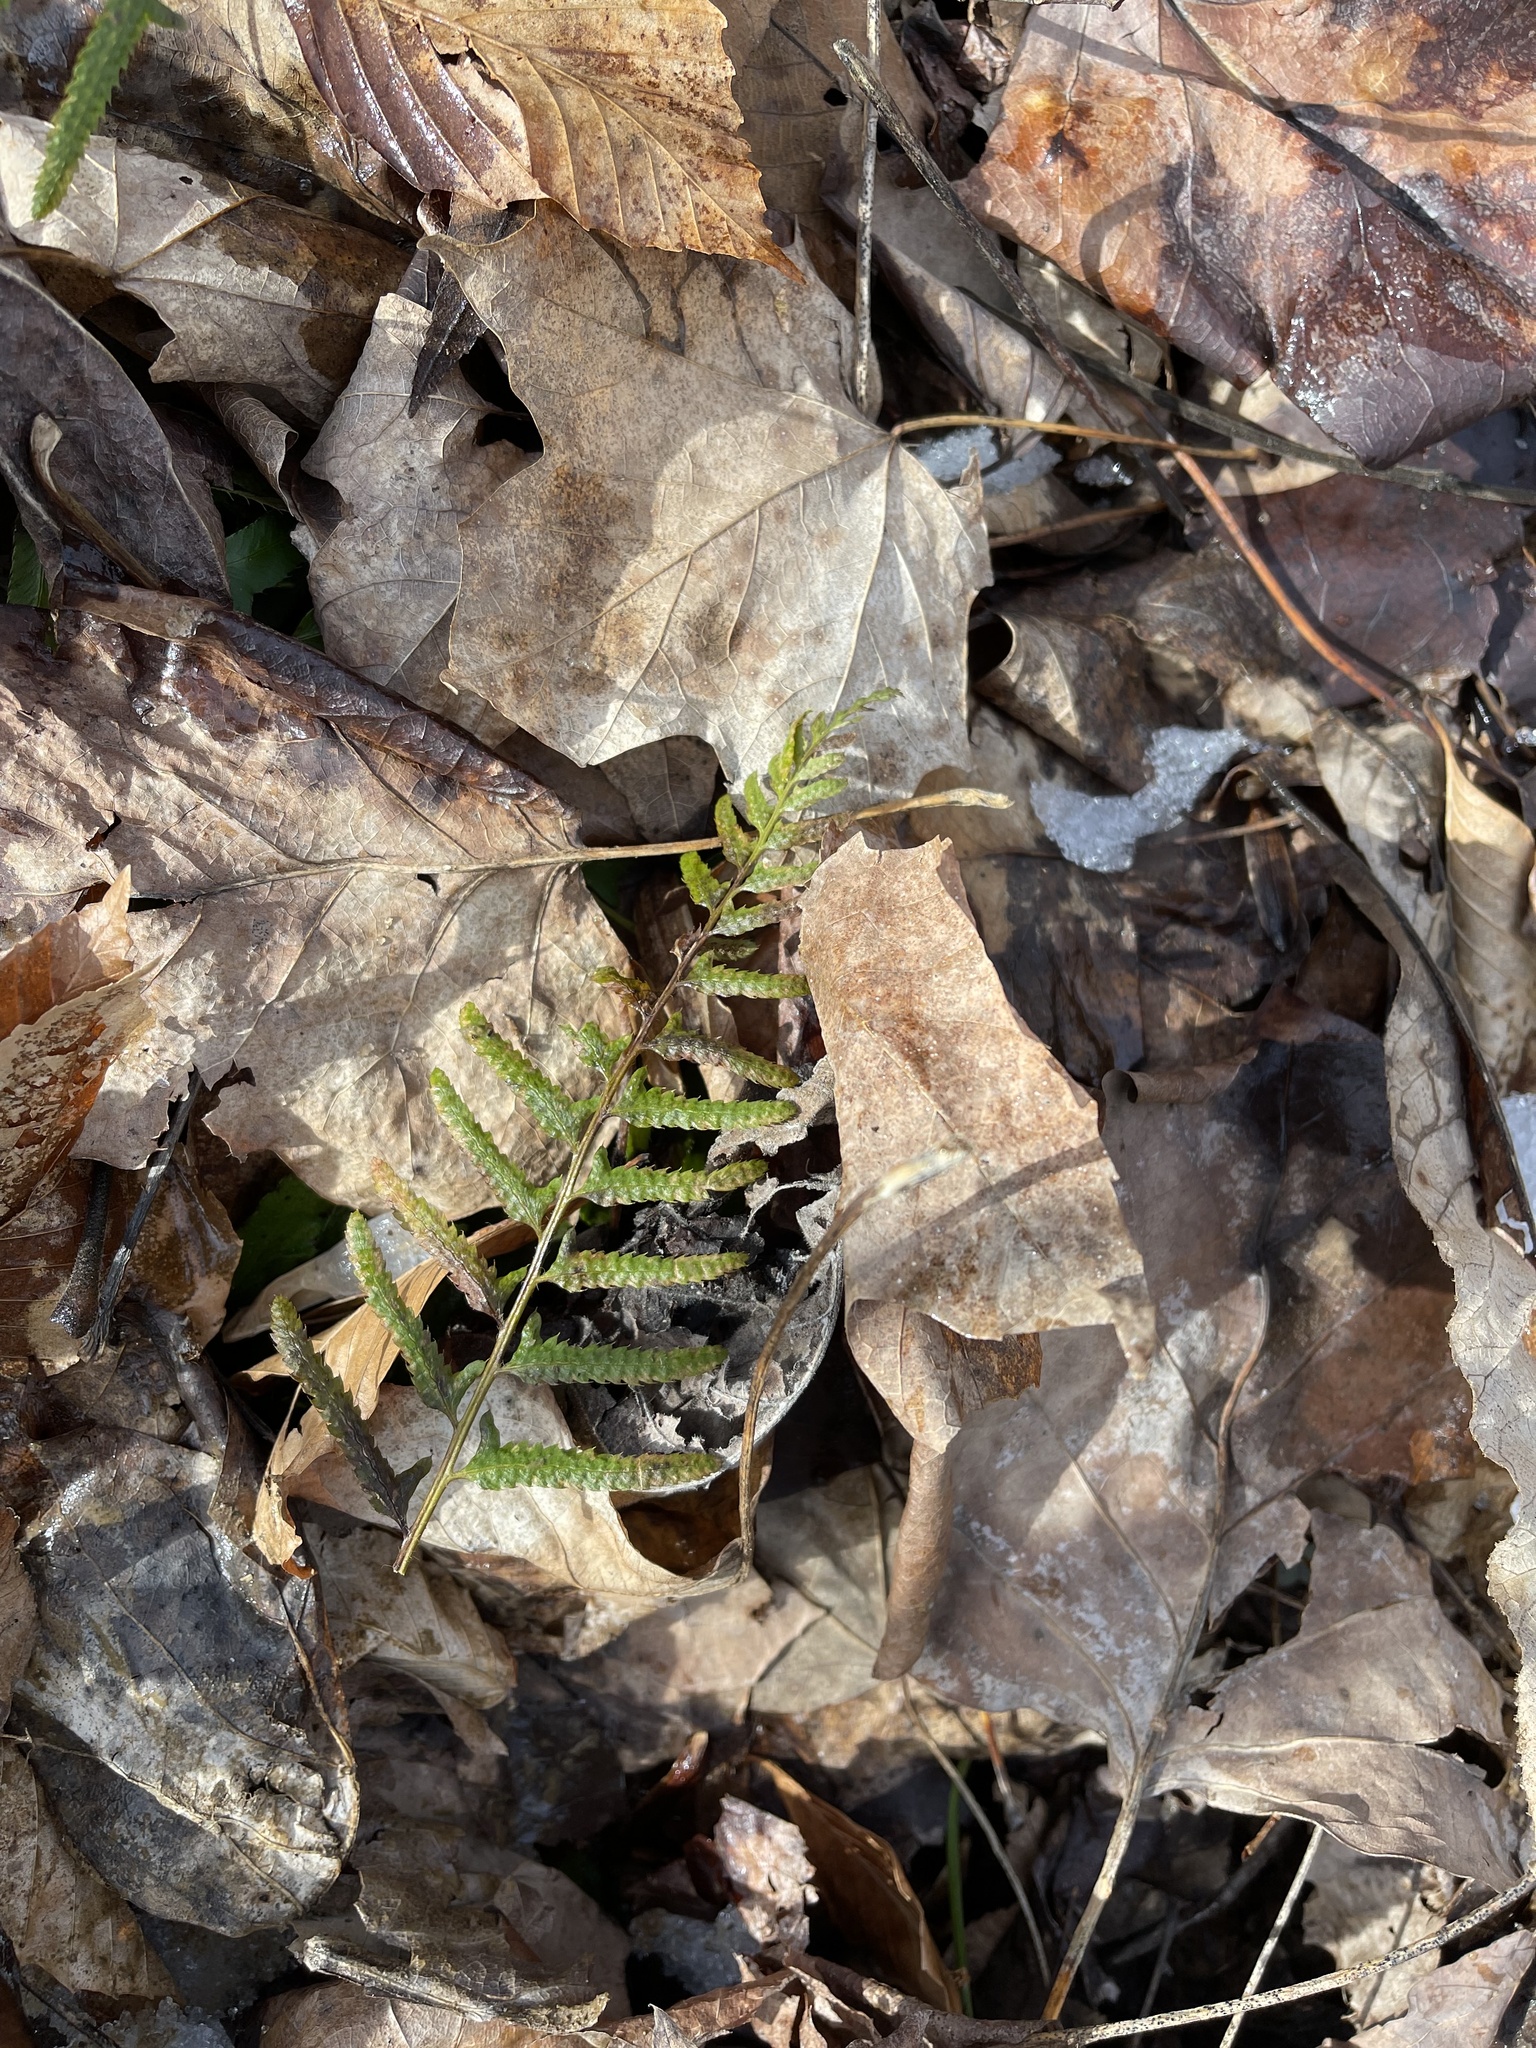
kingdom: Plantae
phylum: Tracheophyta
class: Polypodiopsida
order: Polypodiales
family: Dryopteridaceae
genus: Polystichum
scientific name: Polystichum acrostichoides
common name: Christmas fern
